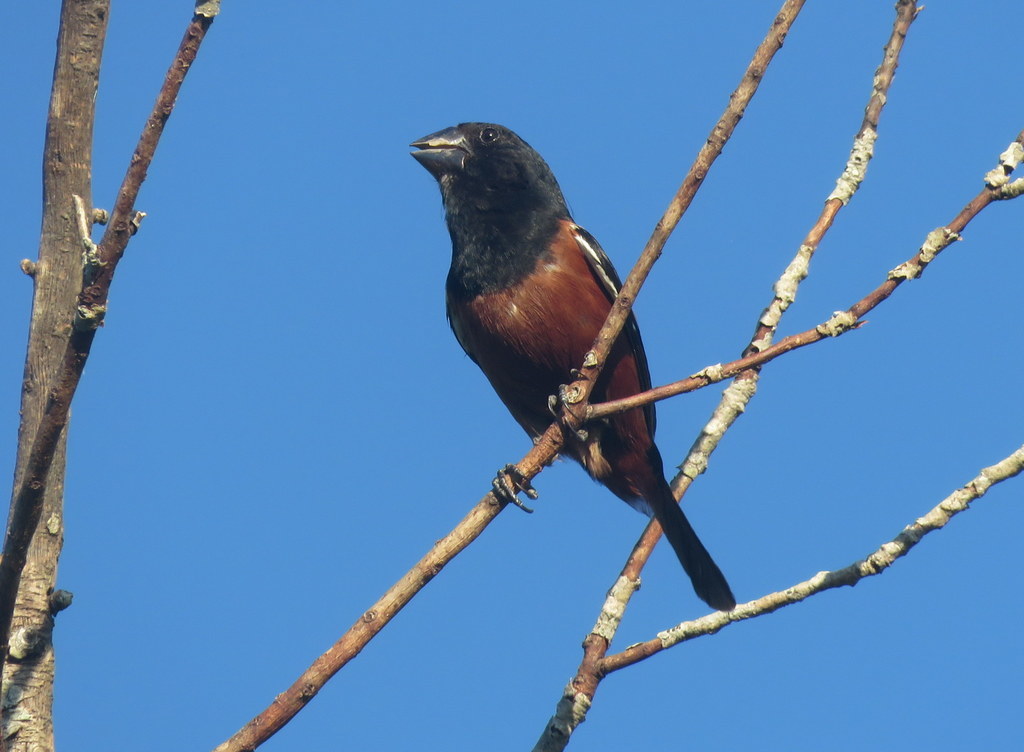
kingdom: Animalia
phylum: Chordata
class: Aves
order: Passeriformes
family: Thraupidae
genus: Sporophila
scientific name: Sporophila angolensis
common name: Chestnut-bellied seed-finch
